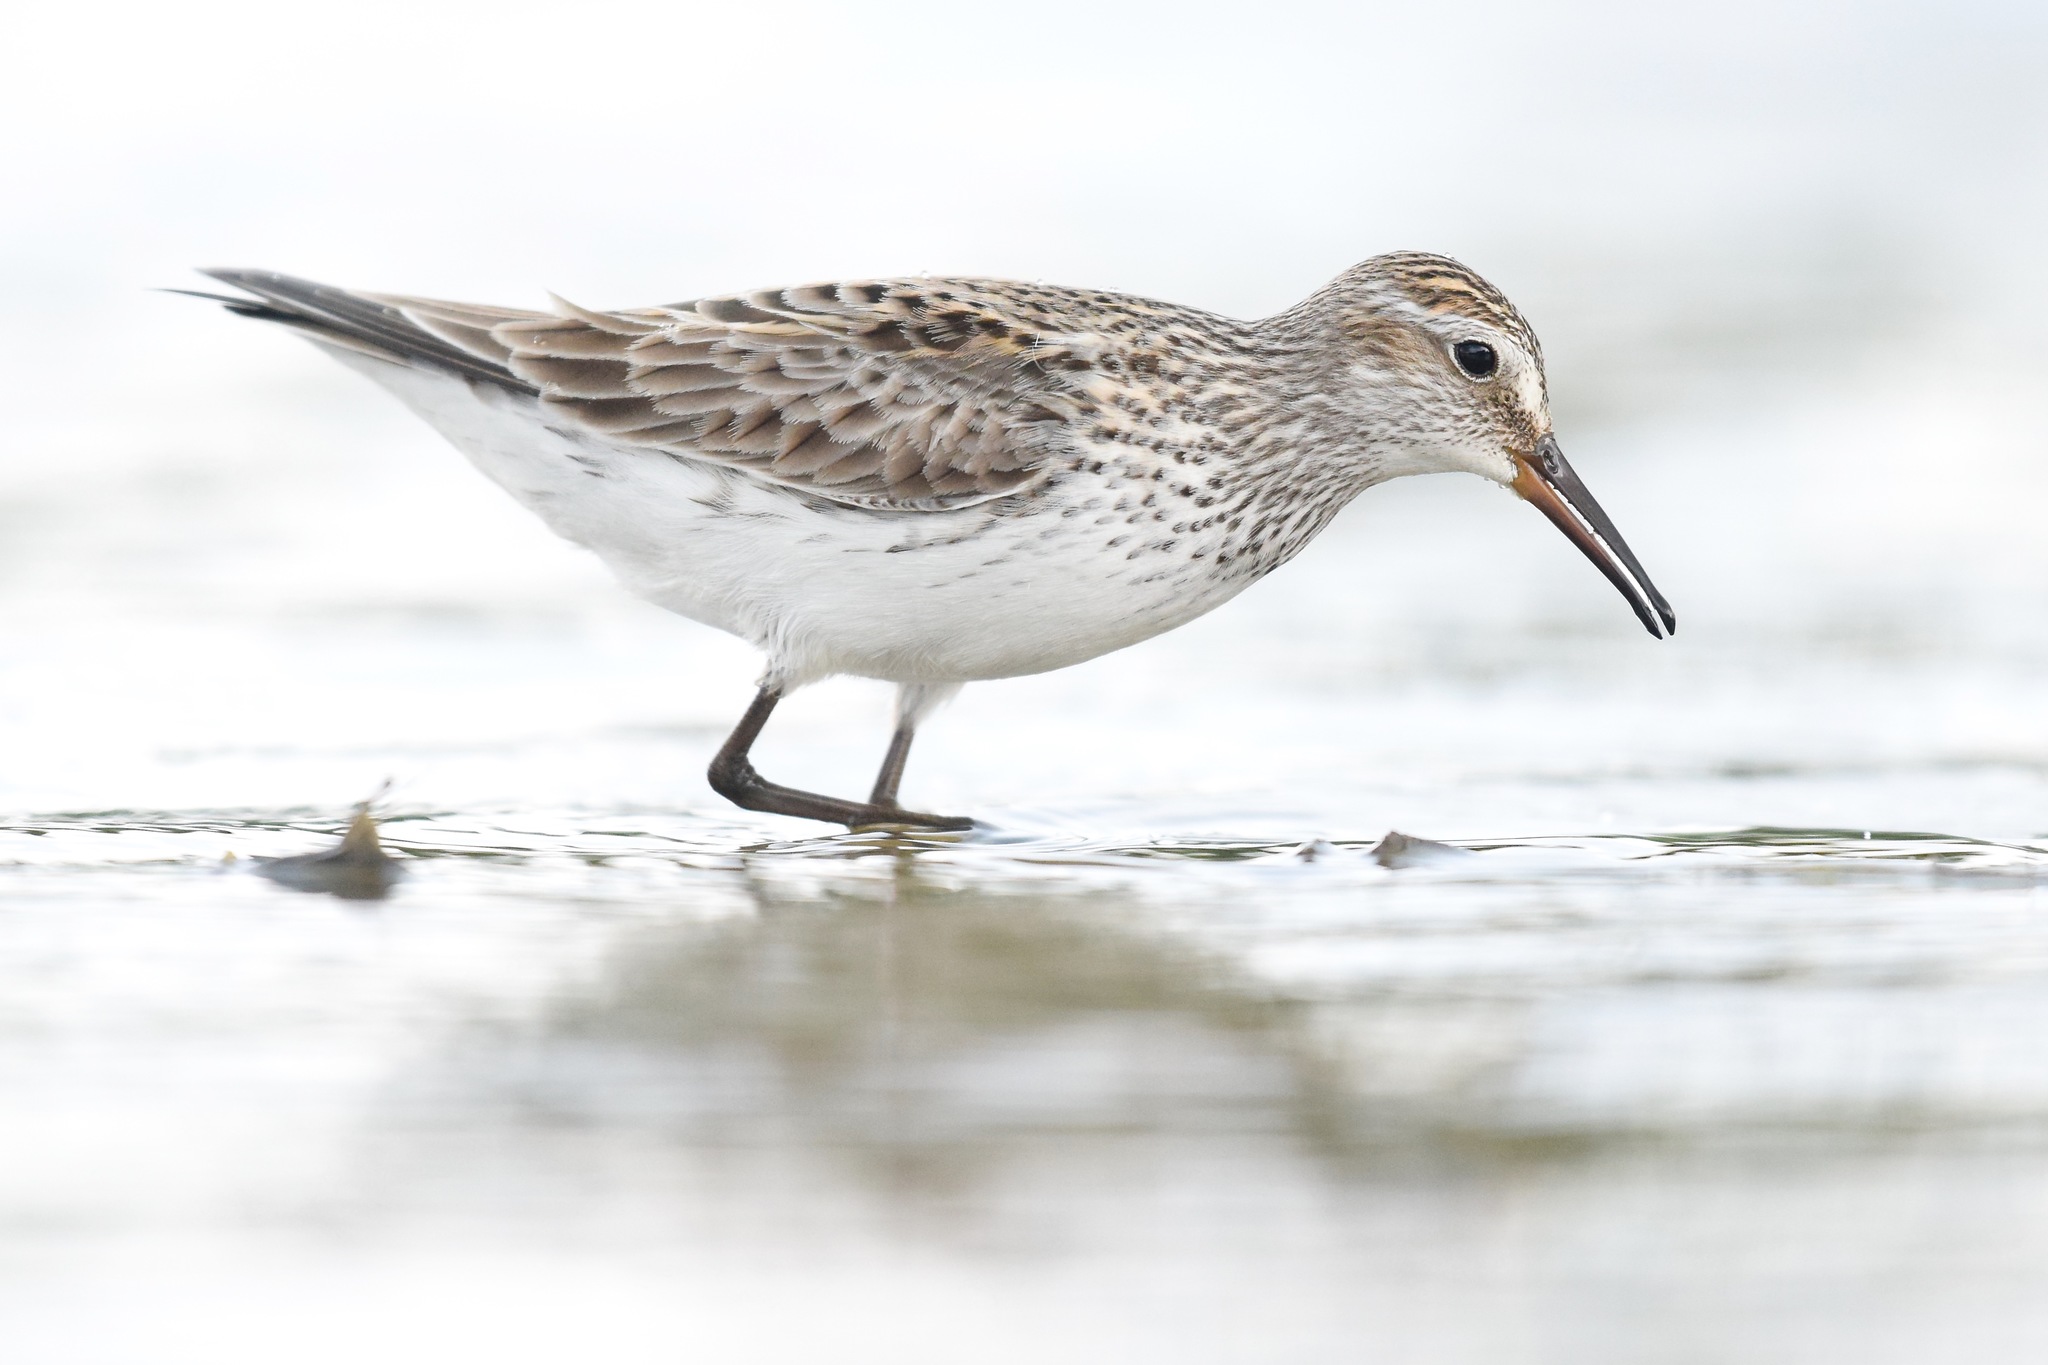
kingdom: Animalia
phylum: Chordata
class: Aves
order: Charadriiformes
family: Scolopacidae
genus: Calidris
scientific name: Calidris fuscicollis
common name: White-rumped sandpiper
